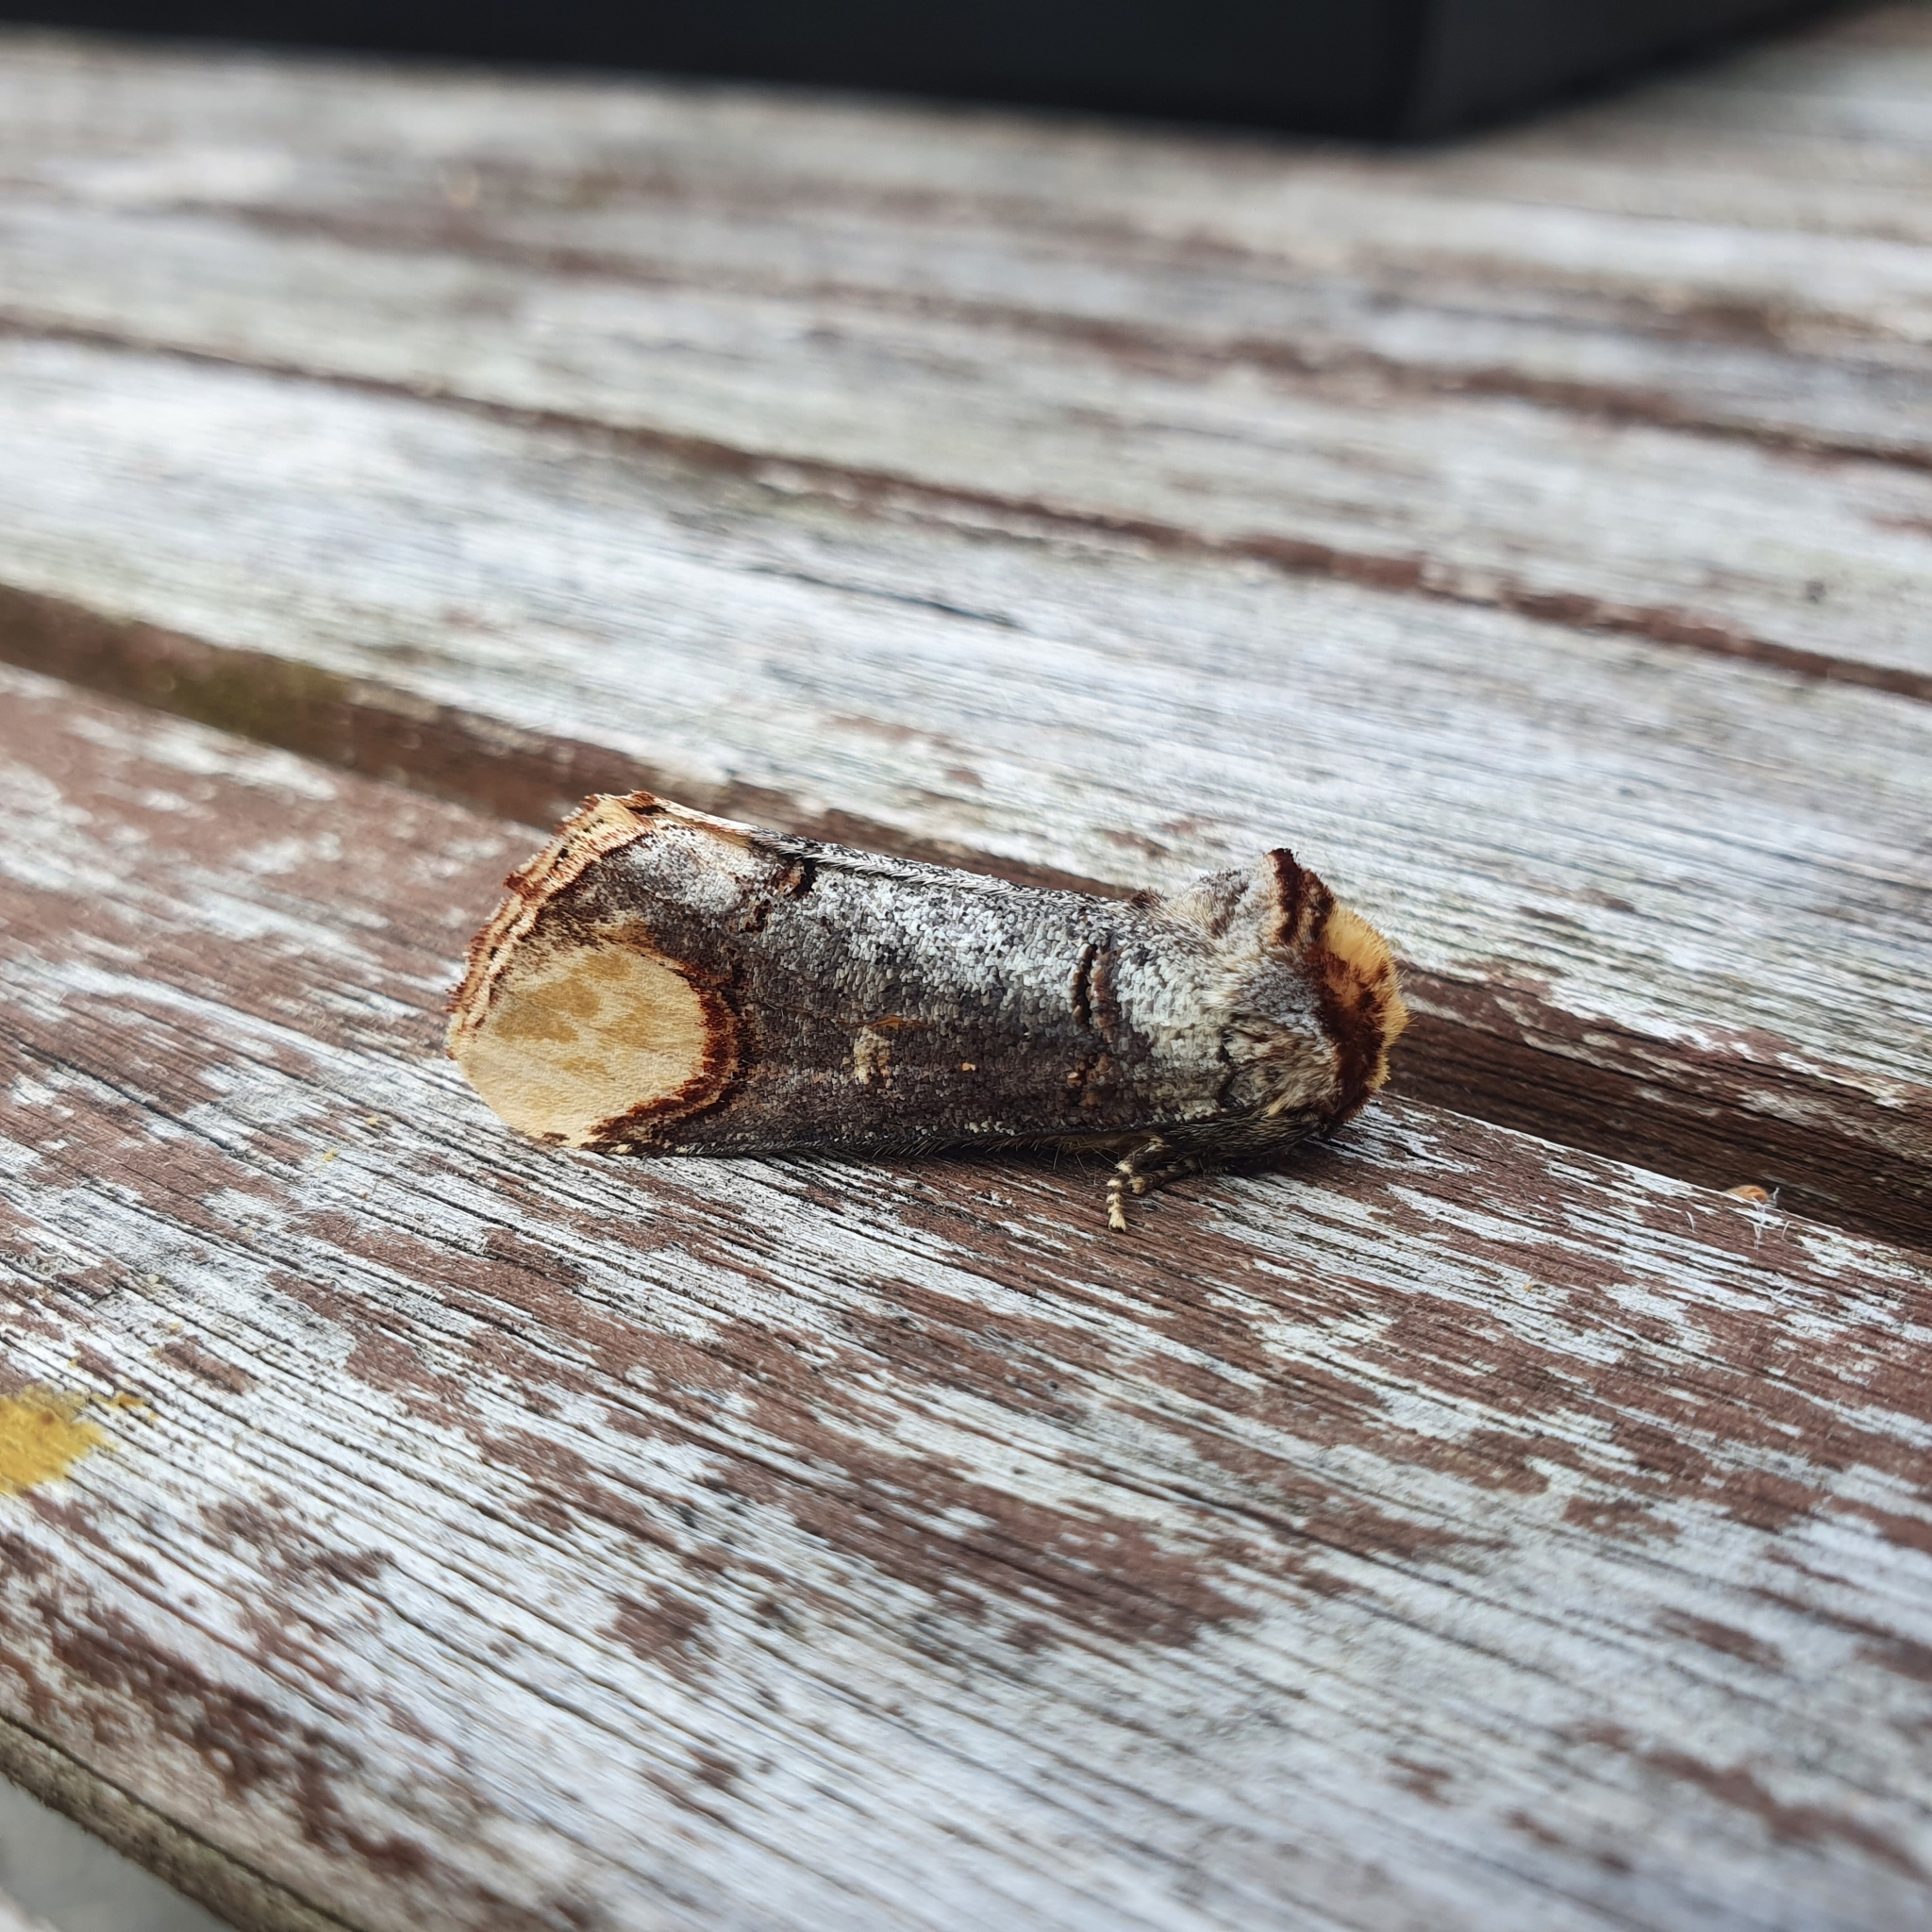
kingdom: Animalia
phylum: Arthropoda
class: Insecta
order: Lepidoptera
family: Notodontidae
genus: Phalera
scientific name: Phalera bucephala
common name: Buff-tip
